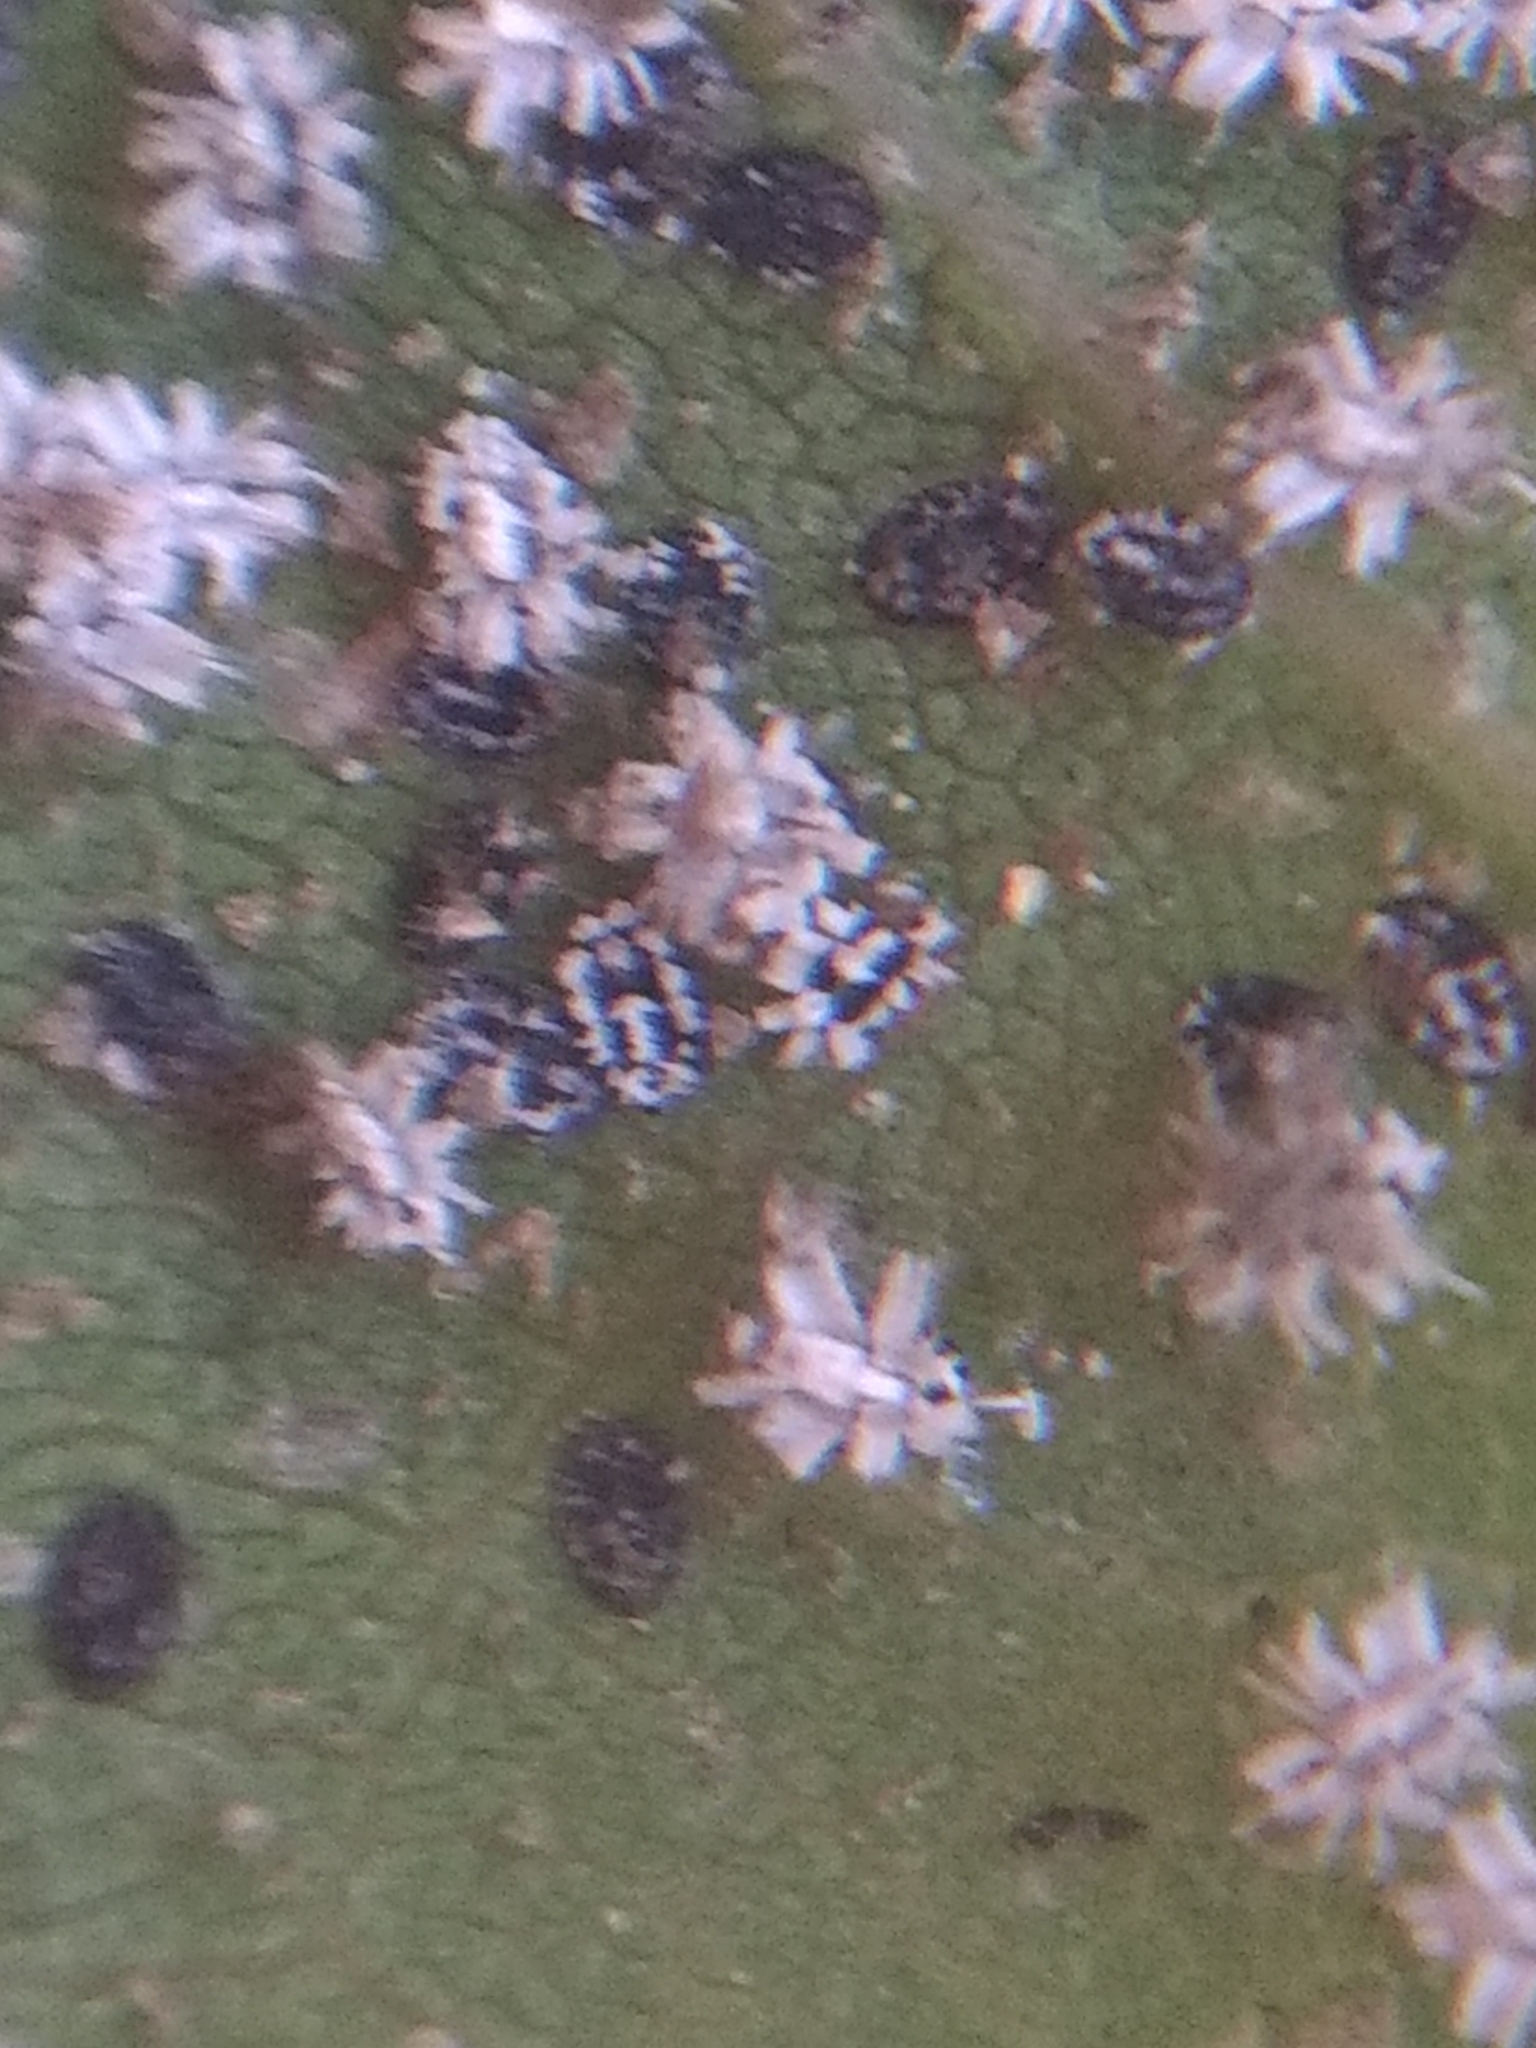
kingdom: Animalia
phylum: Arthropoda
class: Insecta
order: Hemiptera
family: Aleyrodidae
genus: Aleuroplatus
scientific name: Aleuroplatus coronata
